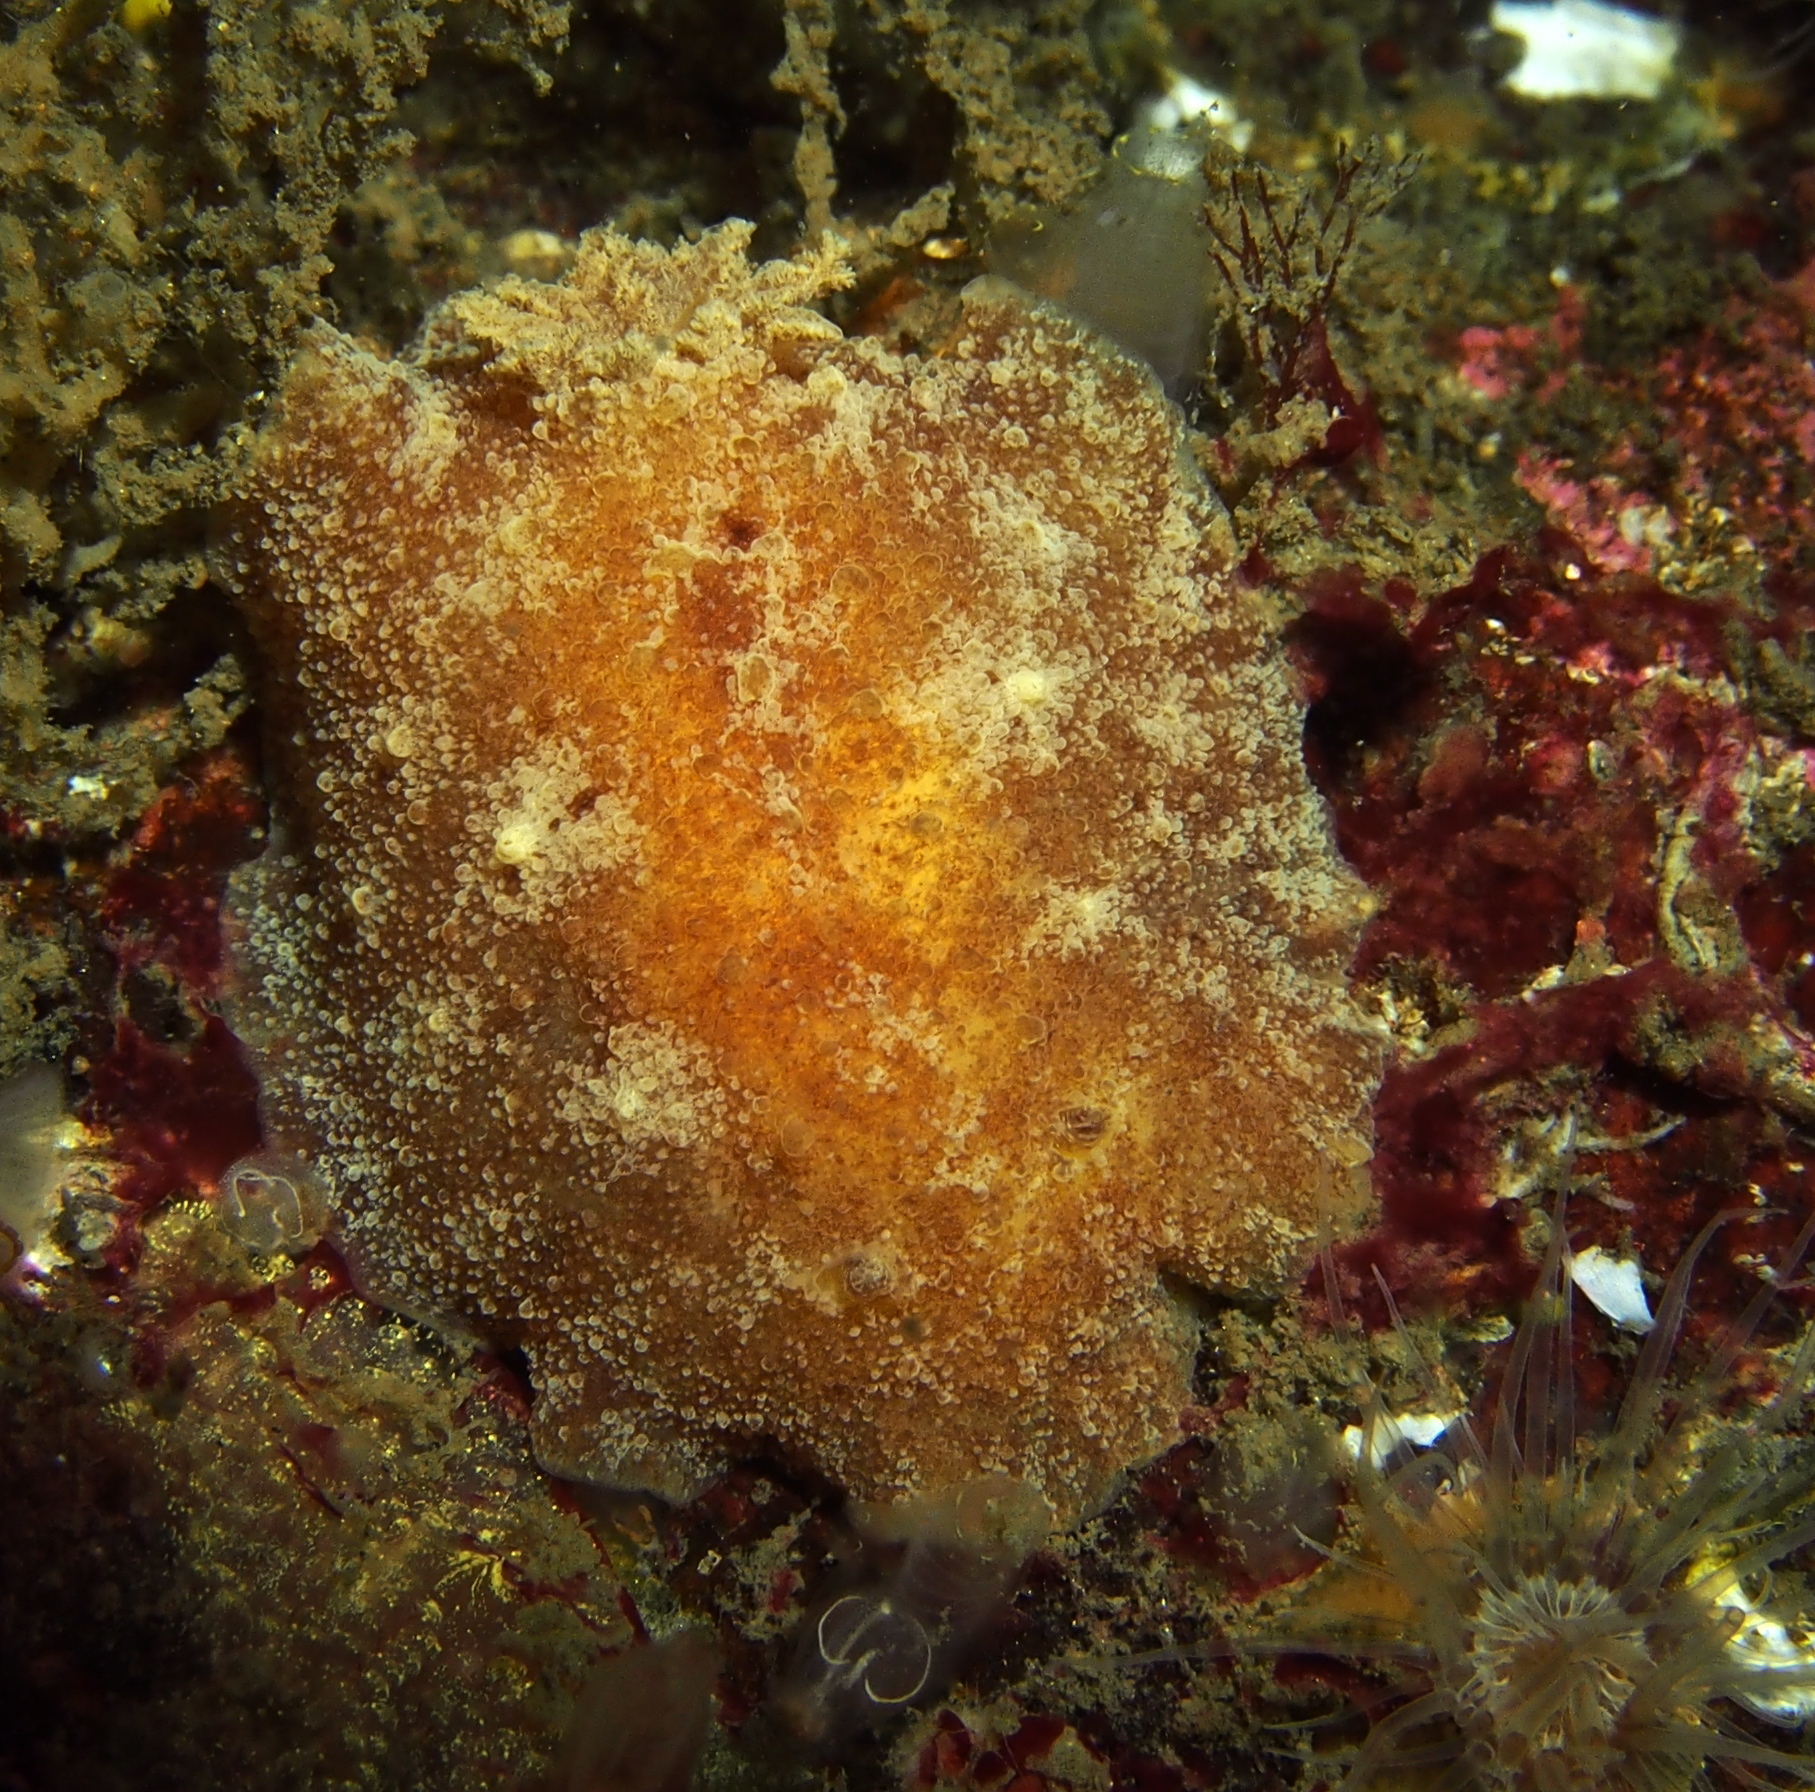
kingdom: Animalia
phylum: Mollusca
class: Gastropoda
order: Nudibranchia
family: Discodorididae
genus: Geitodoris
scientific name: Geitodoris planata
